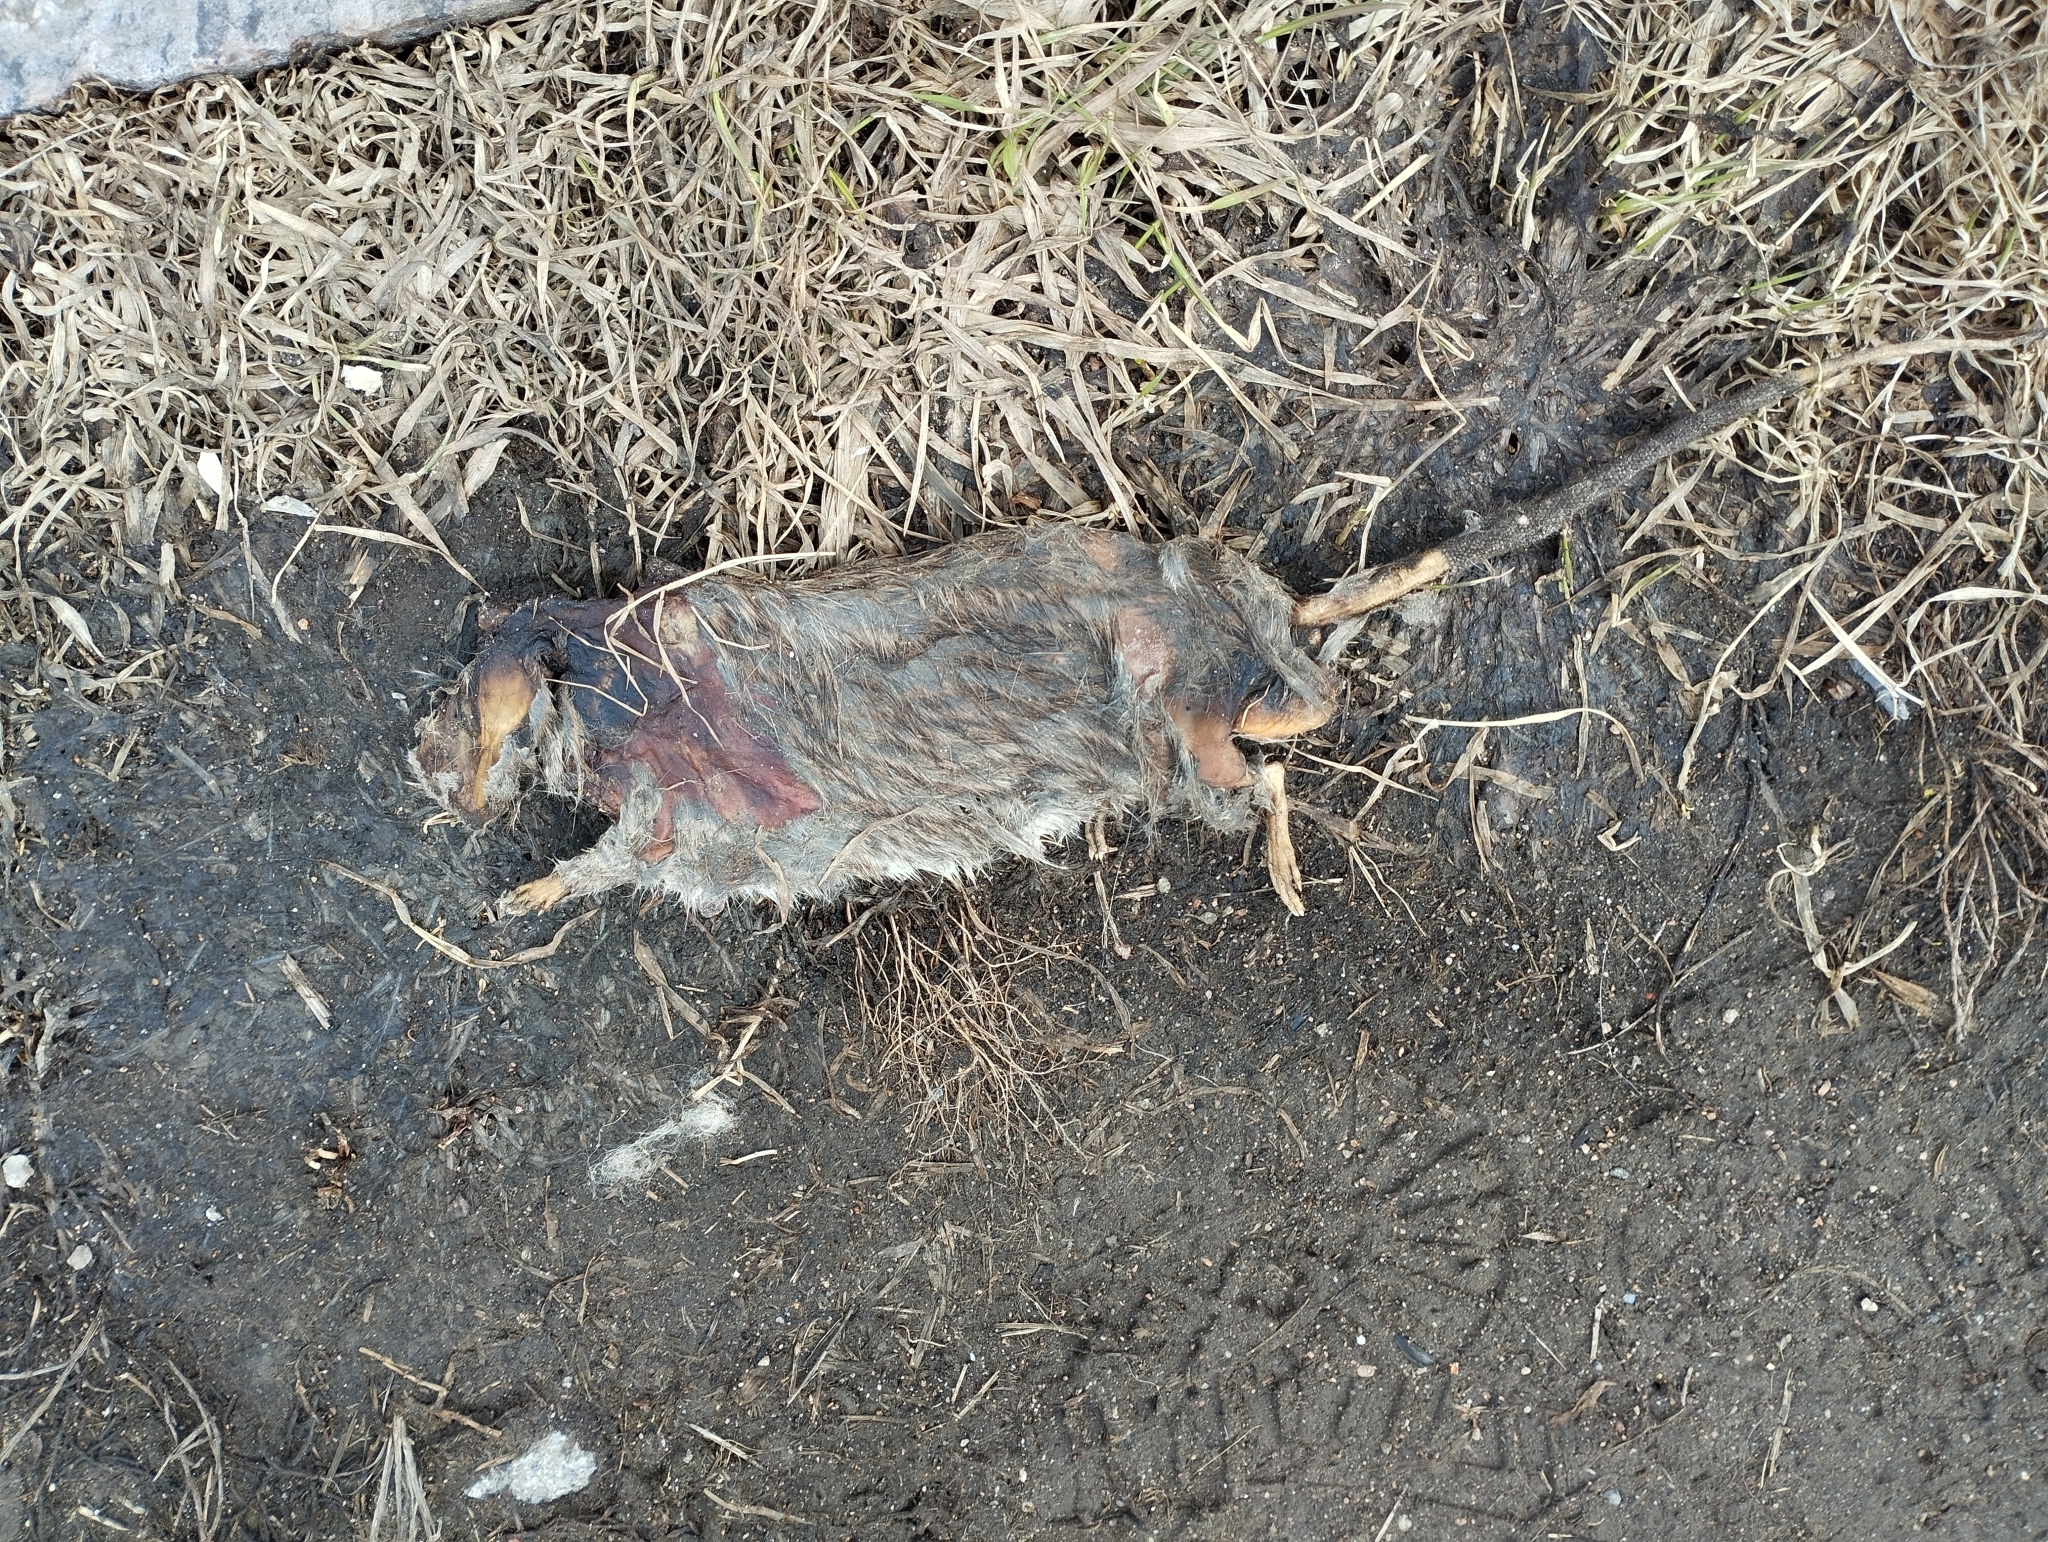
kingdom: Animalia
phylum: Chordata
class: Mammalia
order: Rodentia
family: Muridae
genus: Rattus
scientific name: Rattus norvegicus
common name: Brown rat
